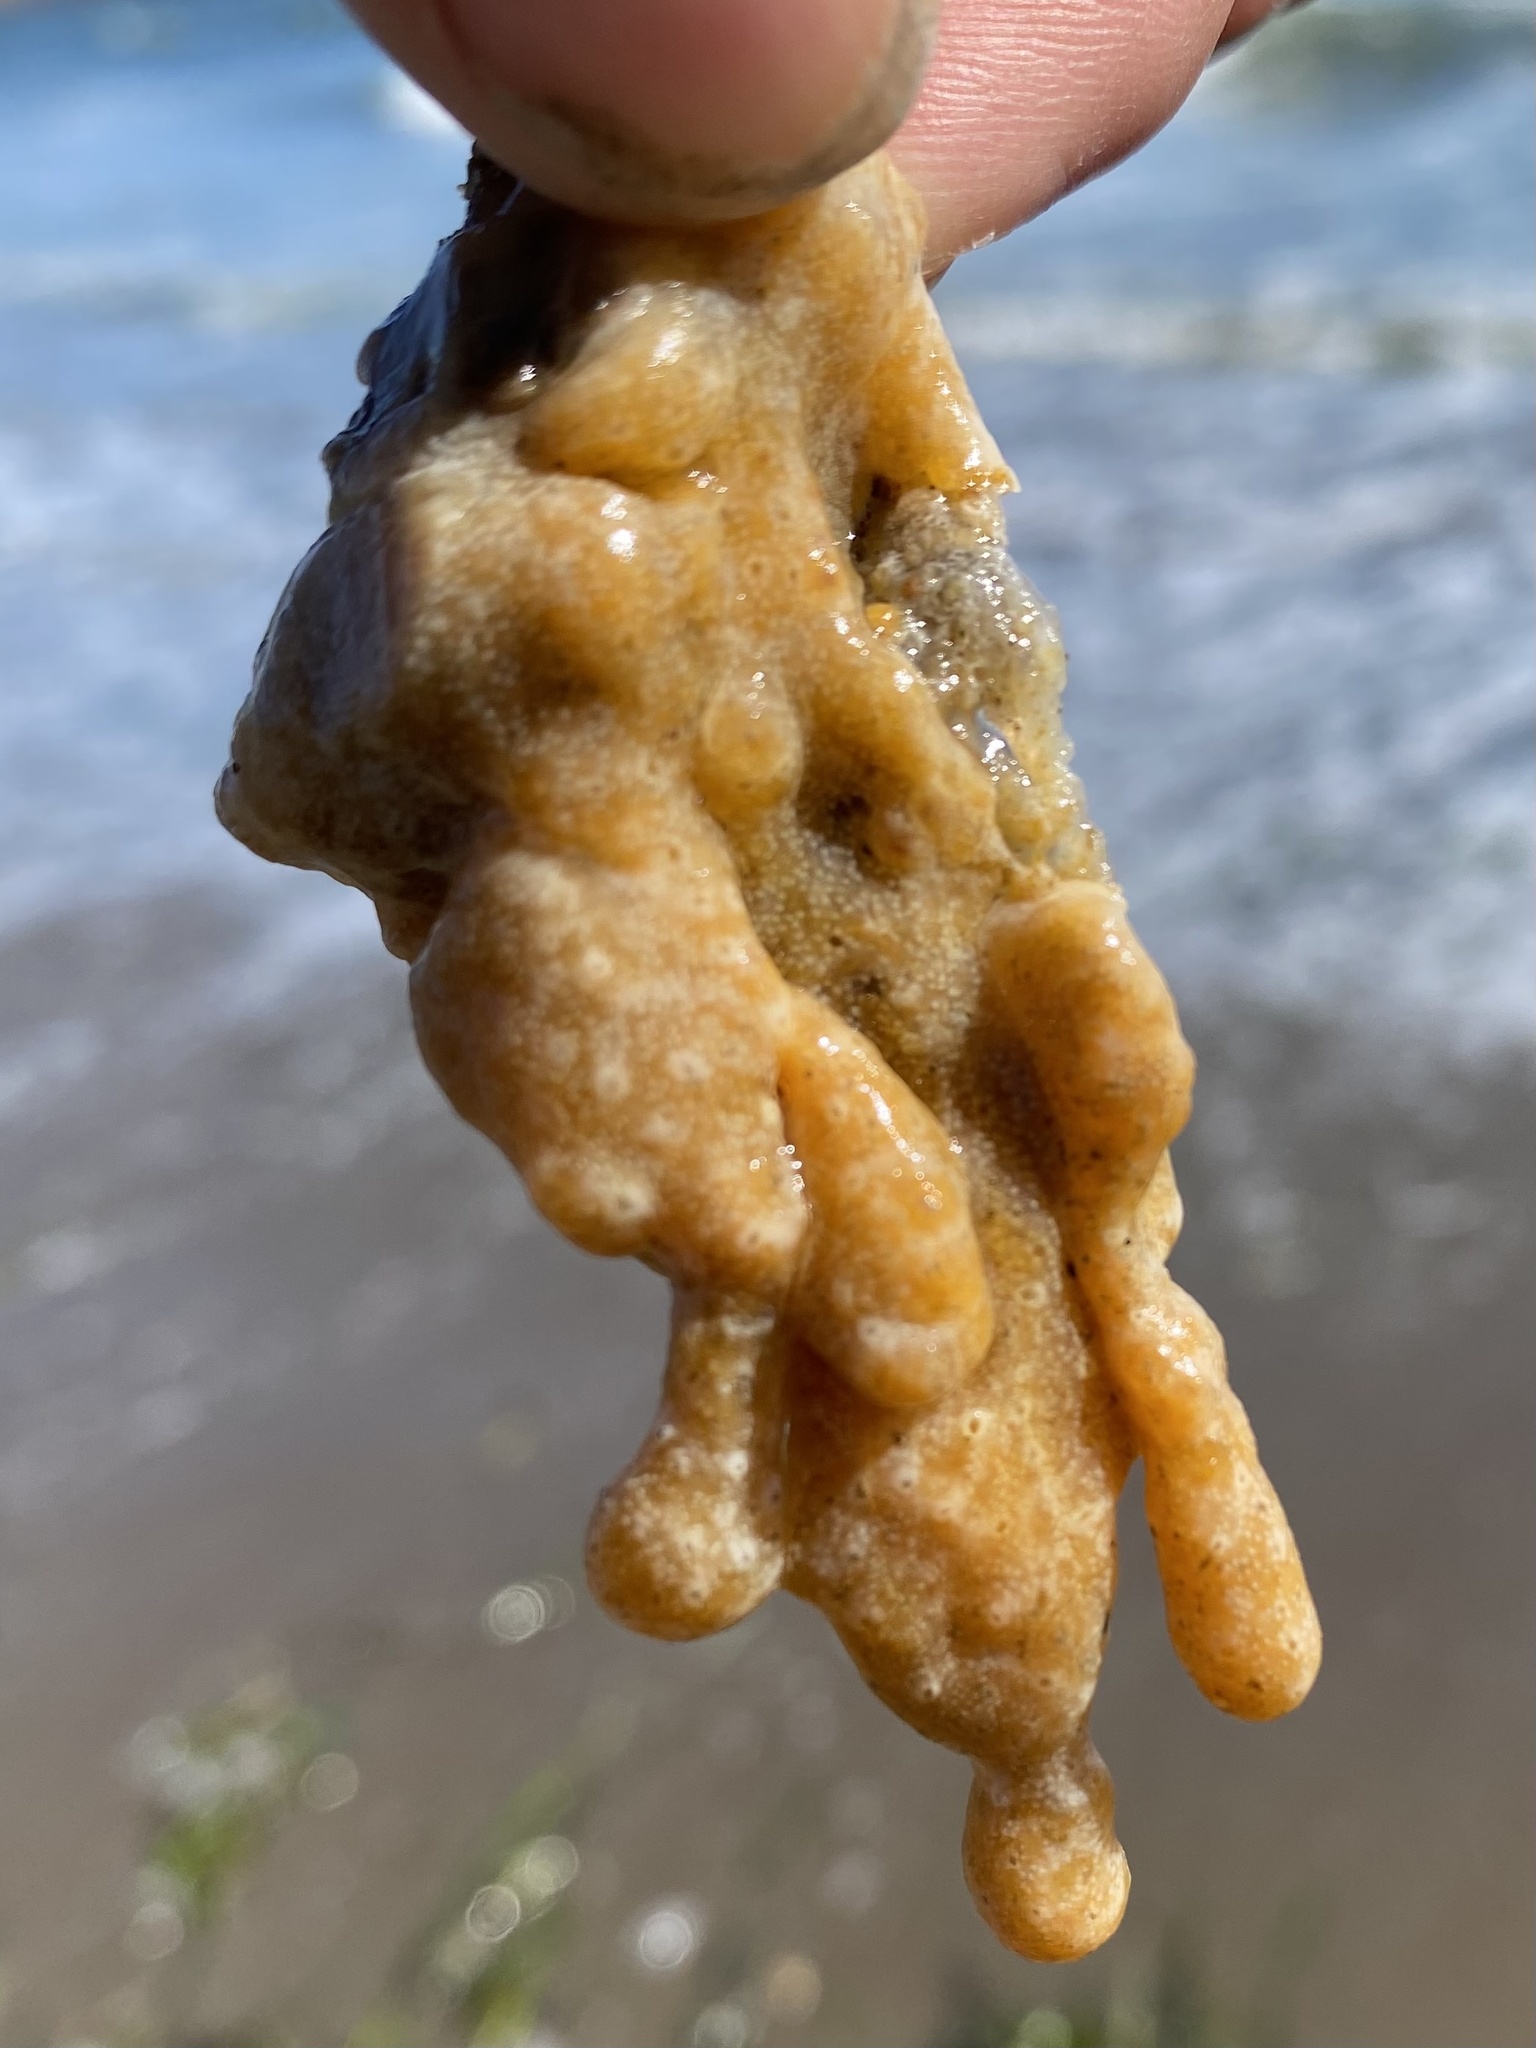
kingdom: Animalia
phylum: Chordata
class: Ascidiacea
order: Aplousobranchia
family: Didemnidae
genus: Didemnum
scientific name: Didemnum vexillum
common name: Compound sea squirt
